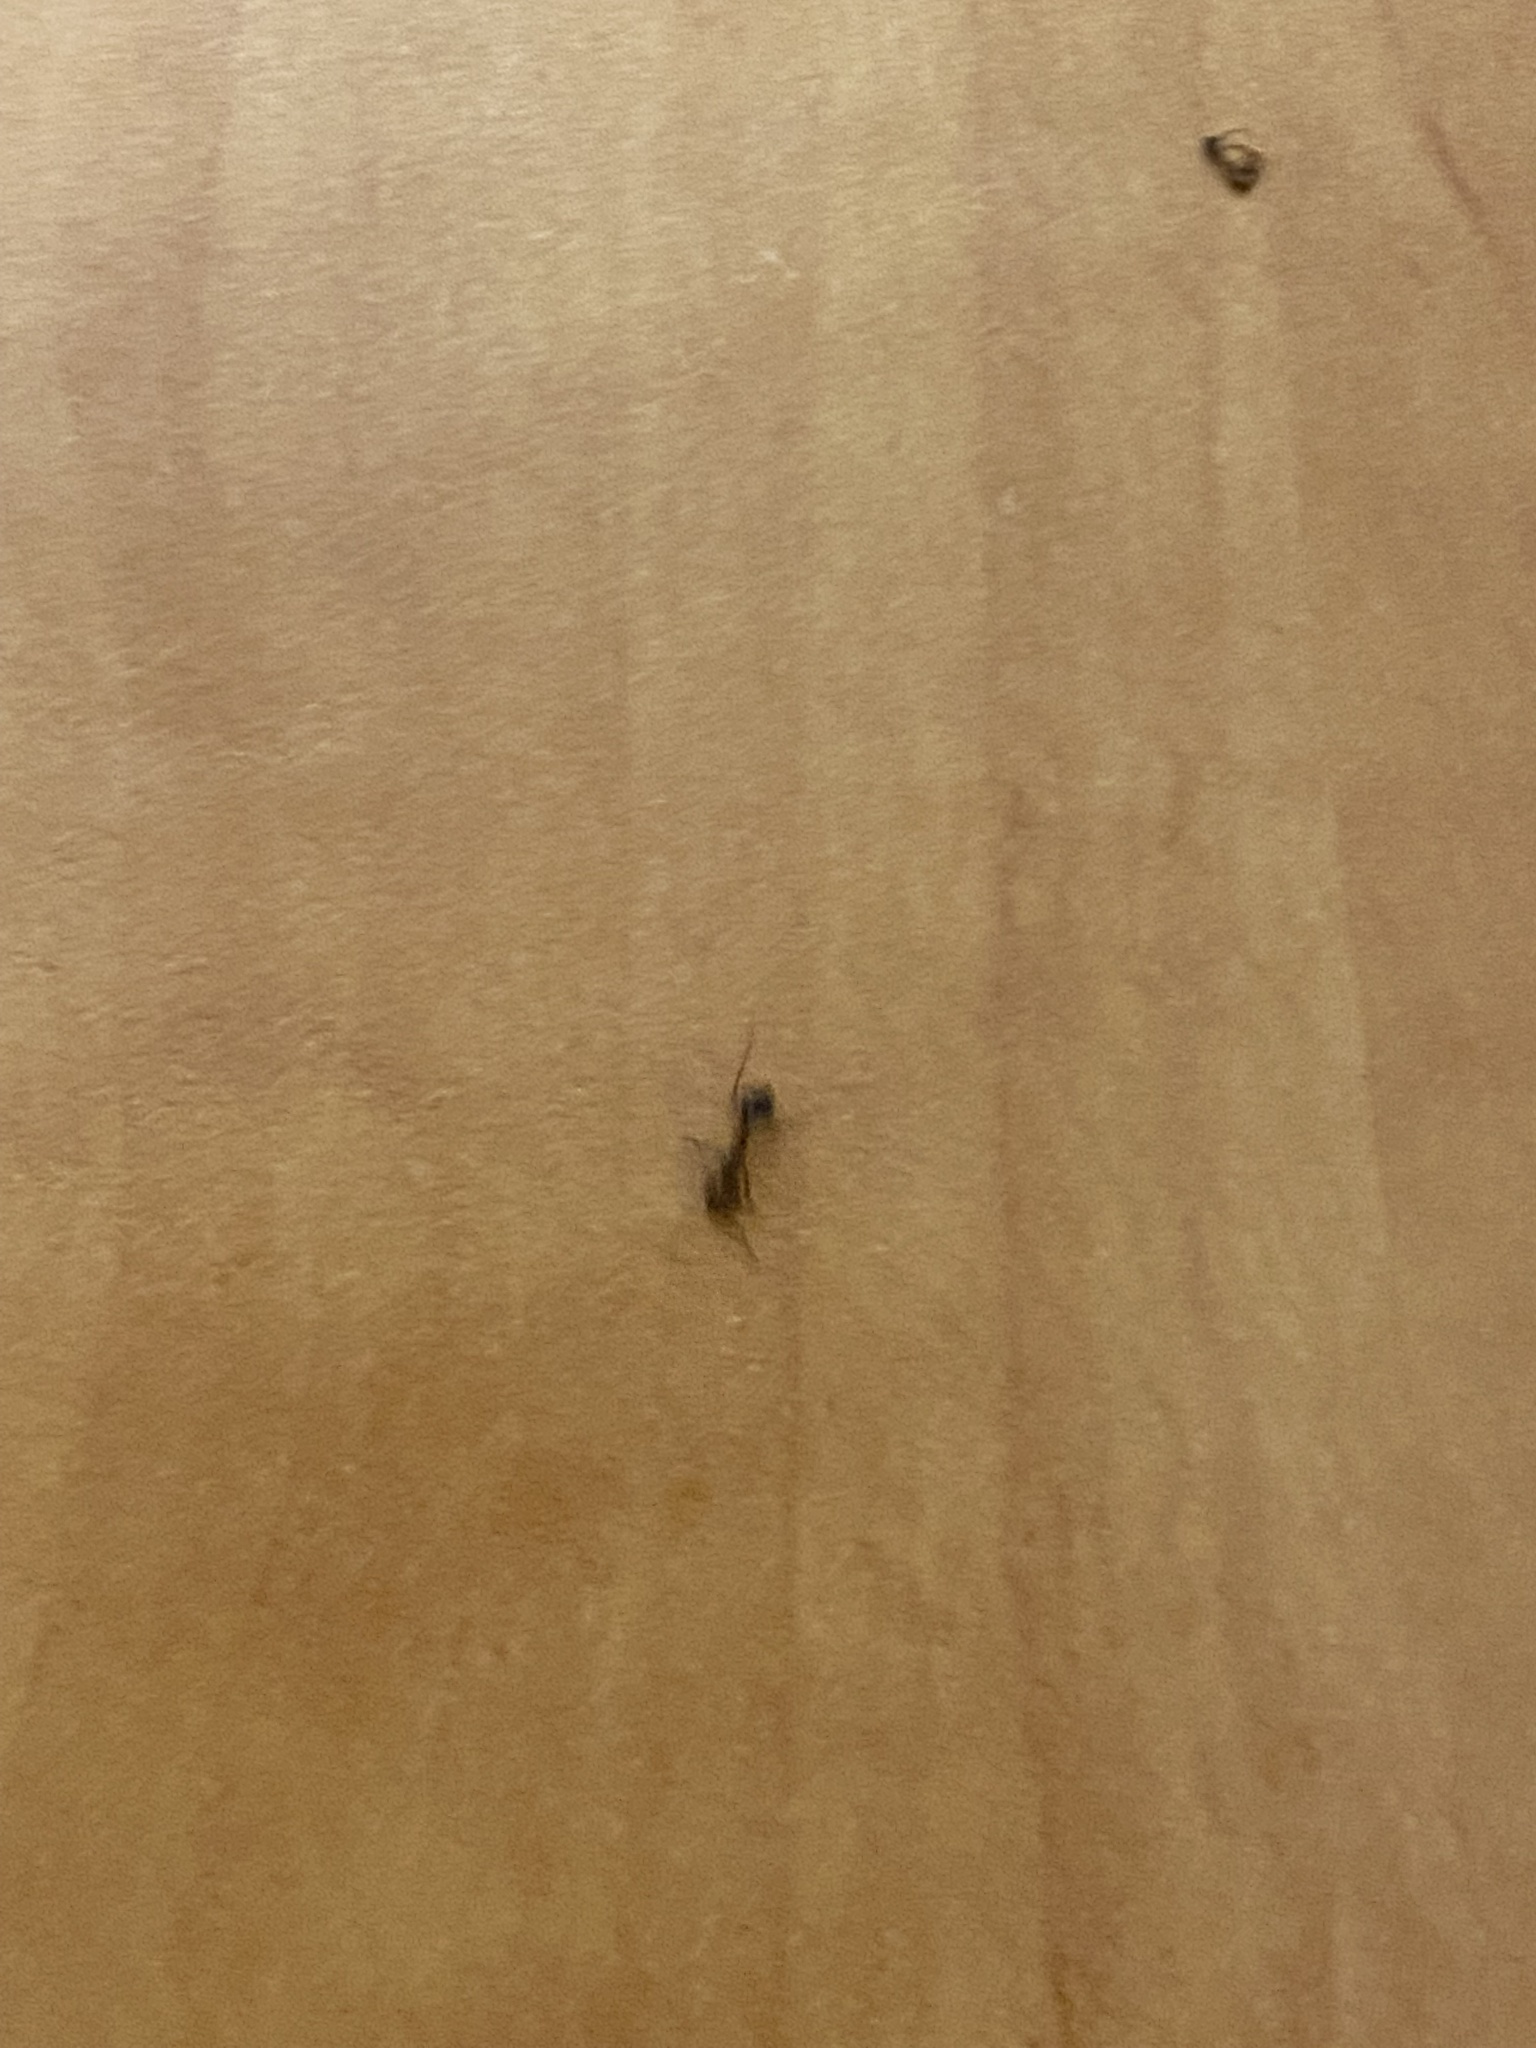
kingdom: Animalia
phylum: Arthropoda
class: Insecta
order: Hymenoptera
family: Formicidae
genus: Solenopsis
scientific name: Solenopsis invicta
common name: Red imported fire ant
